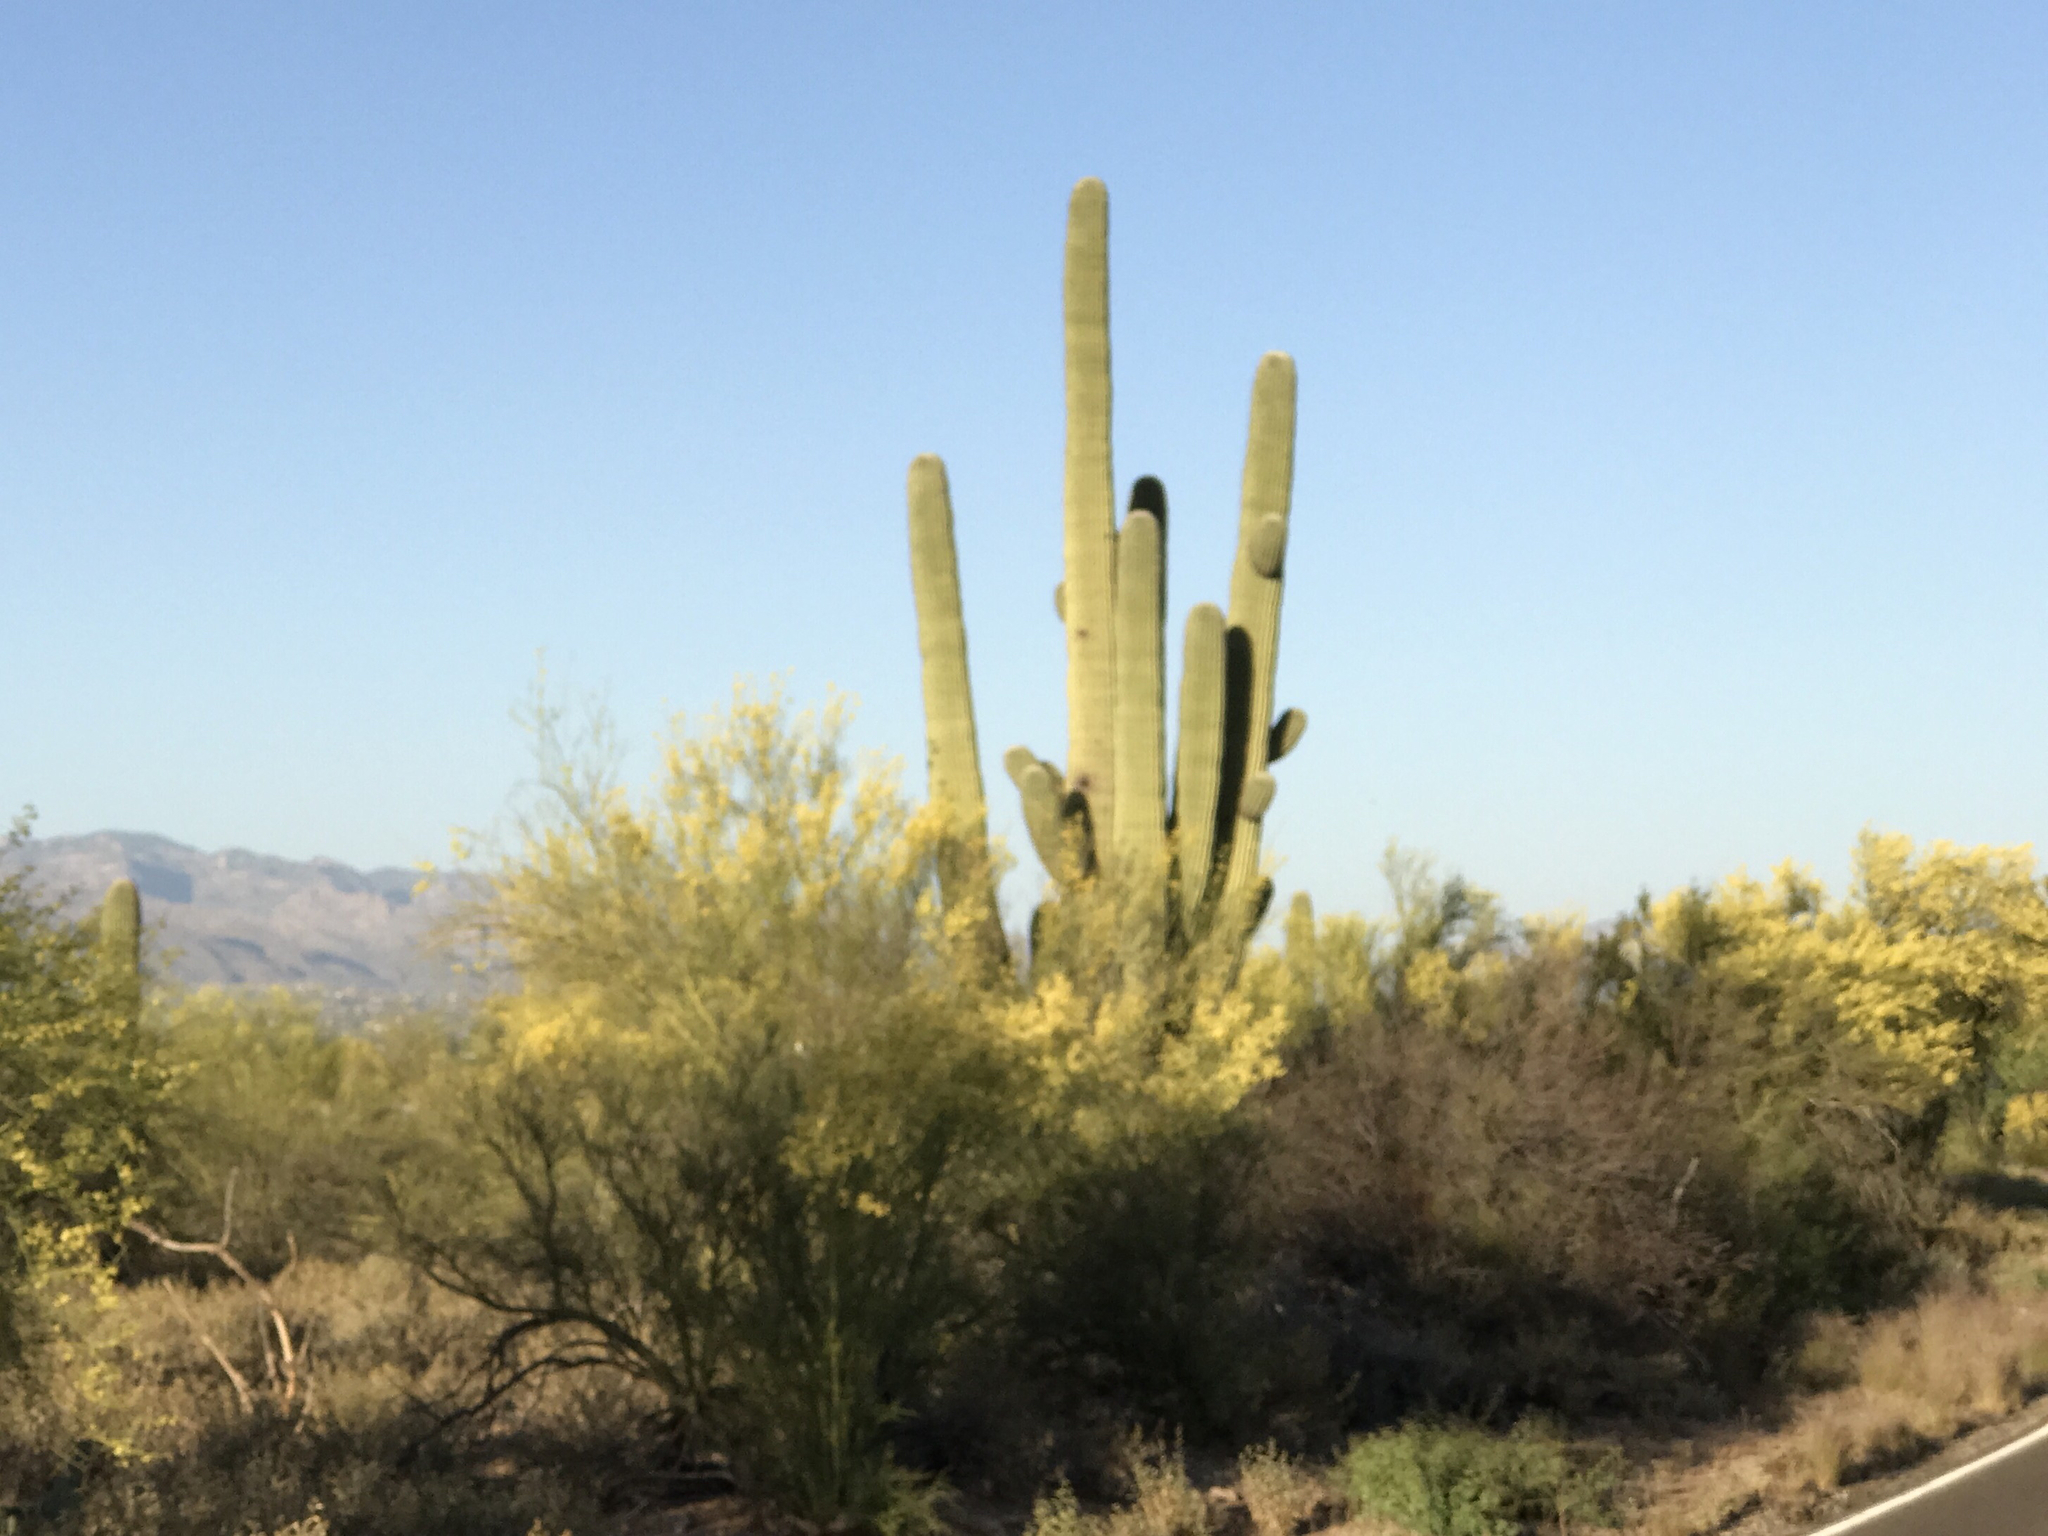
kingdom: Plantae
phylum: Tracheophyta
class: Magnoliopsida
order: Caryophyllales
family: Cactaceae
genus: Carnegiea
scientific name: Carnegiea gigantea
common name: Saguaro
